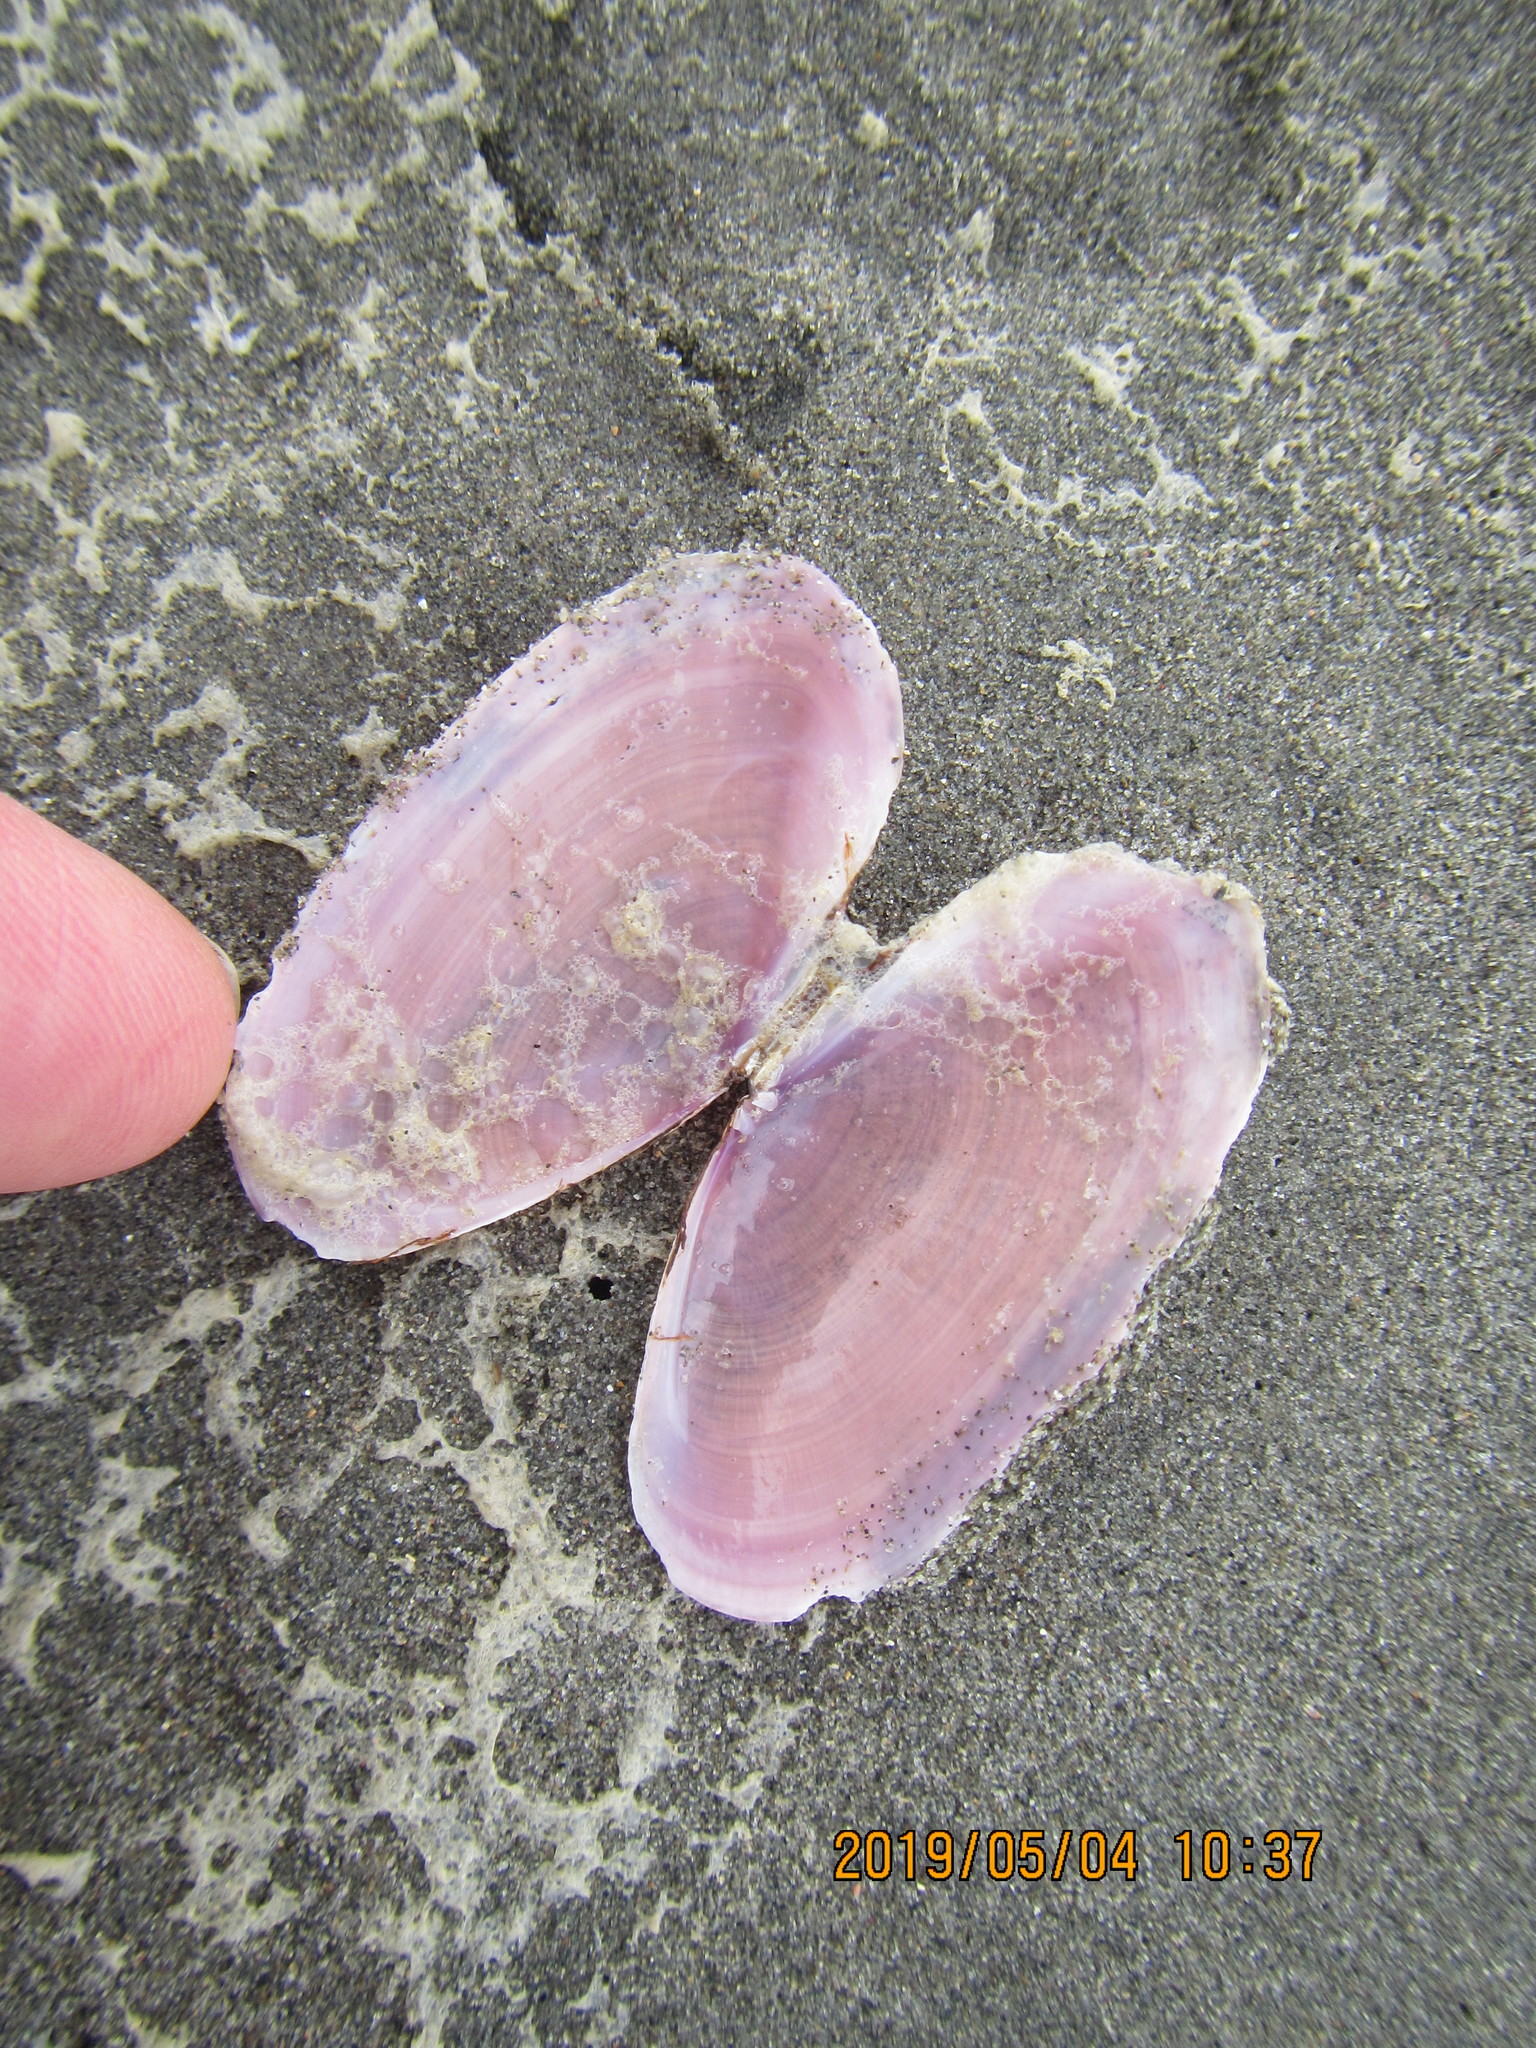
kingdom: Animalia
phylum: Mollusca
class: Bivalvia
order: Cardiida
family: Psammobiidae
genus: Gari
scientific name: Gari lineolata
